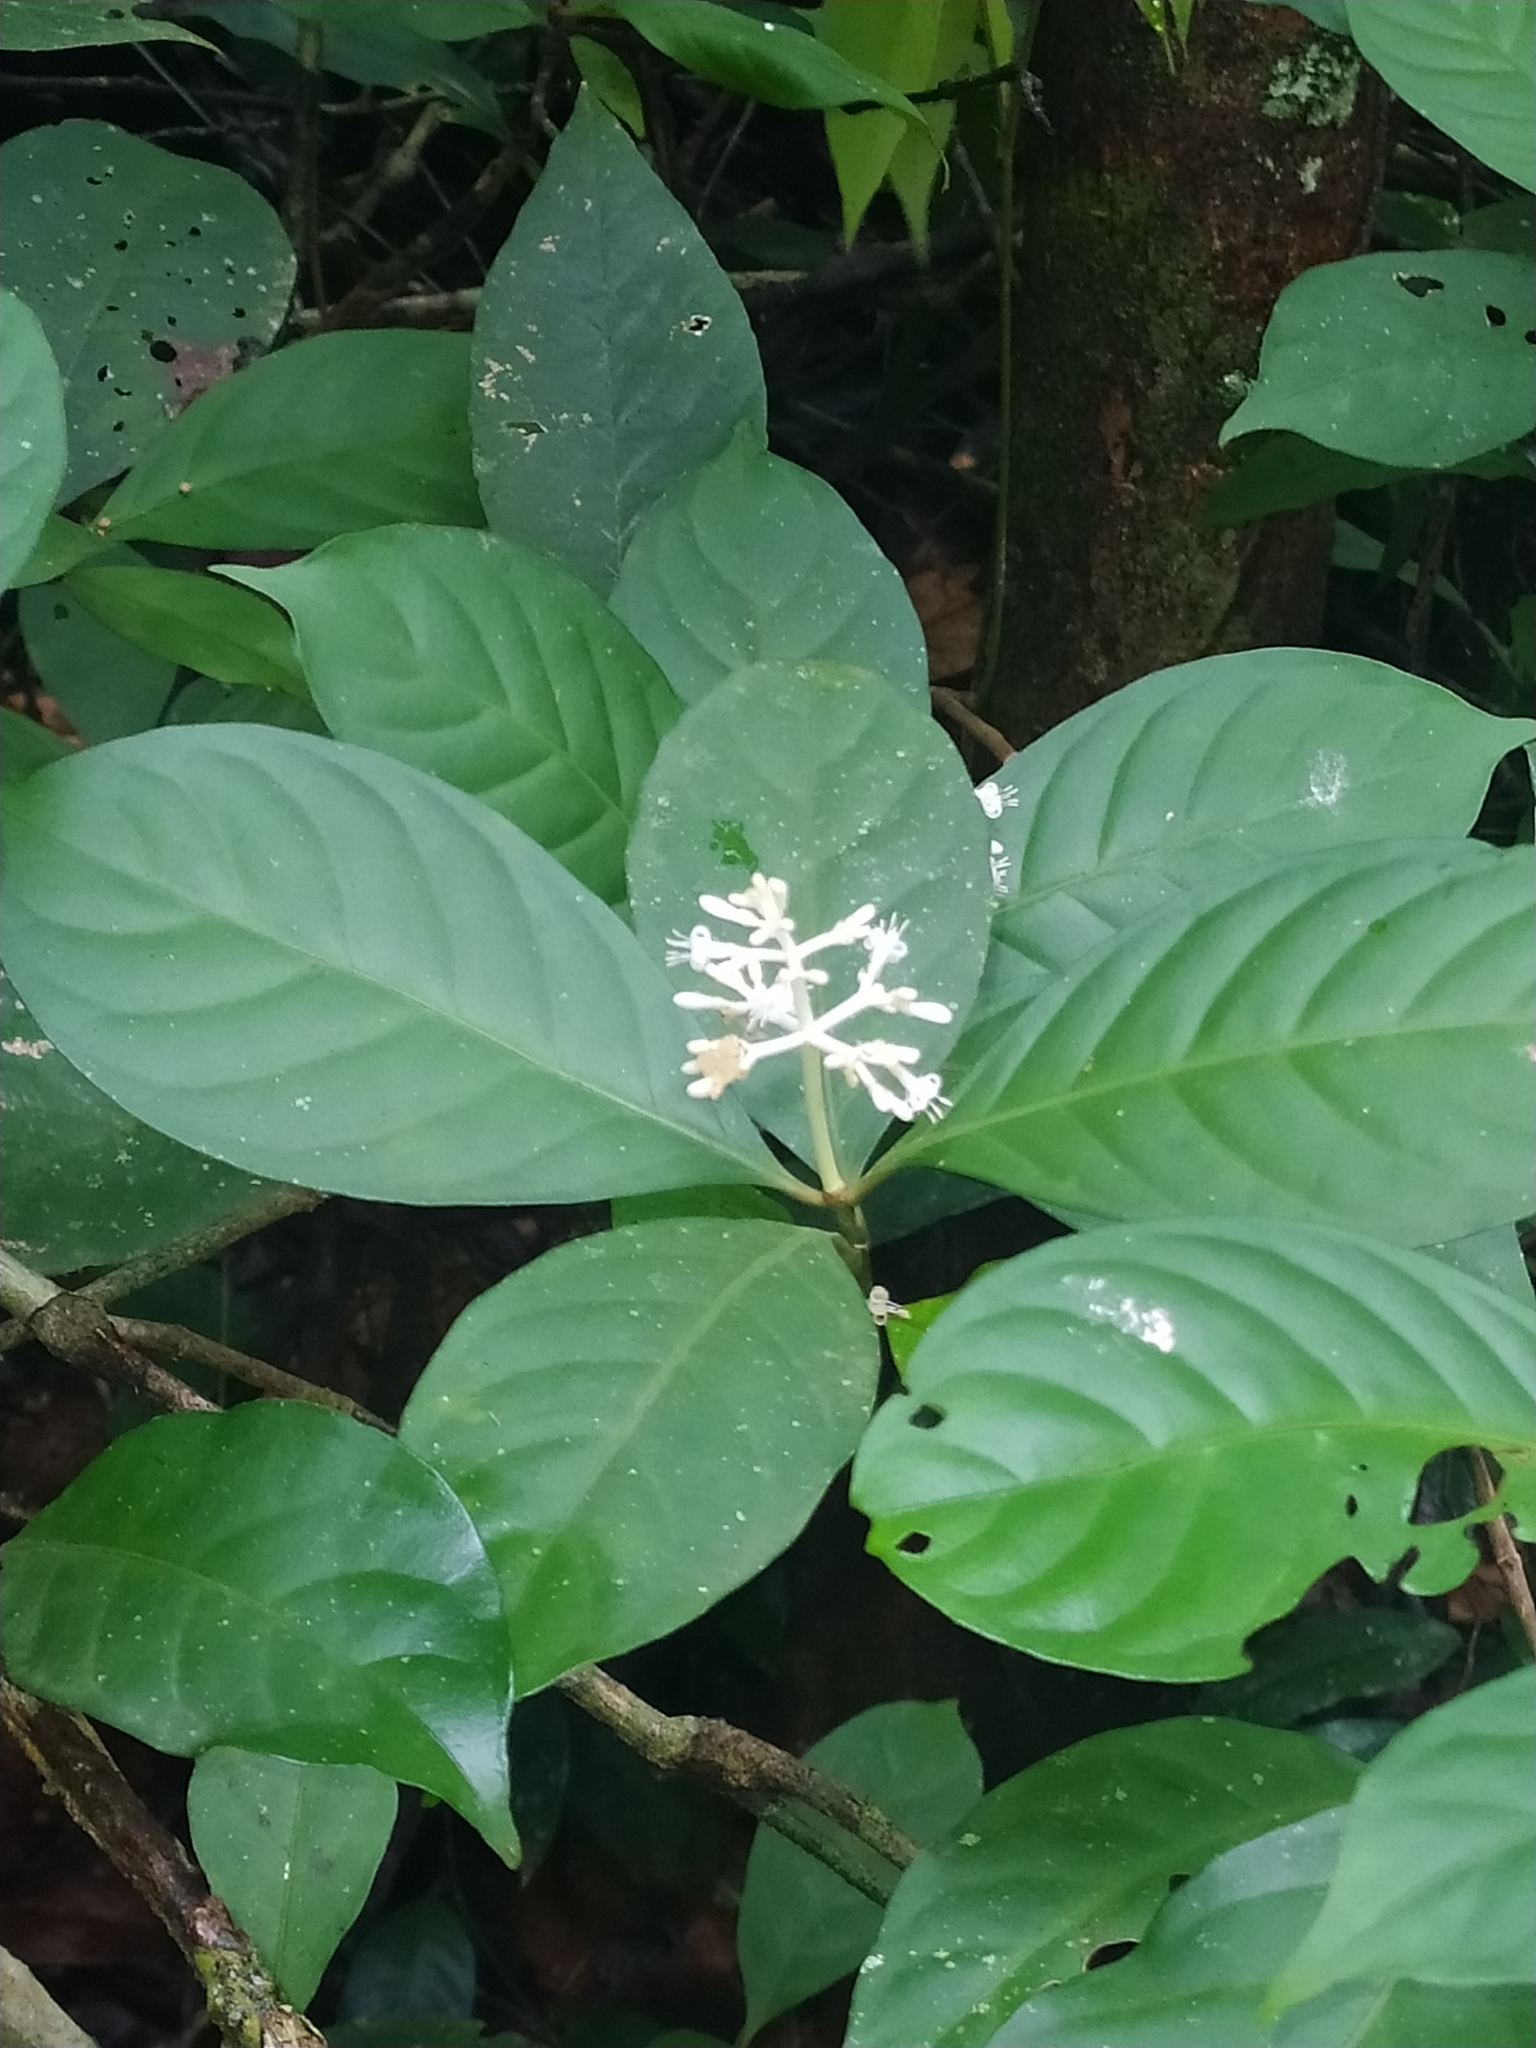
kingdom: Plantae
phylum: Tracheophyta
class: Magnoliopsida
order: Gentianales
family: Rubiaceae
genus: Psychotria
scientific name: Psychotria cupularis
